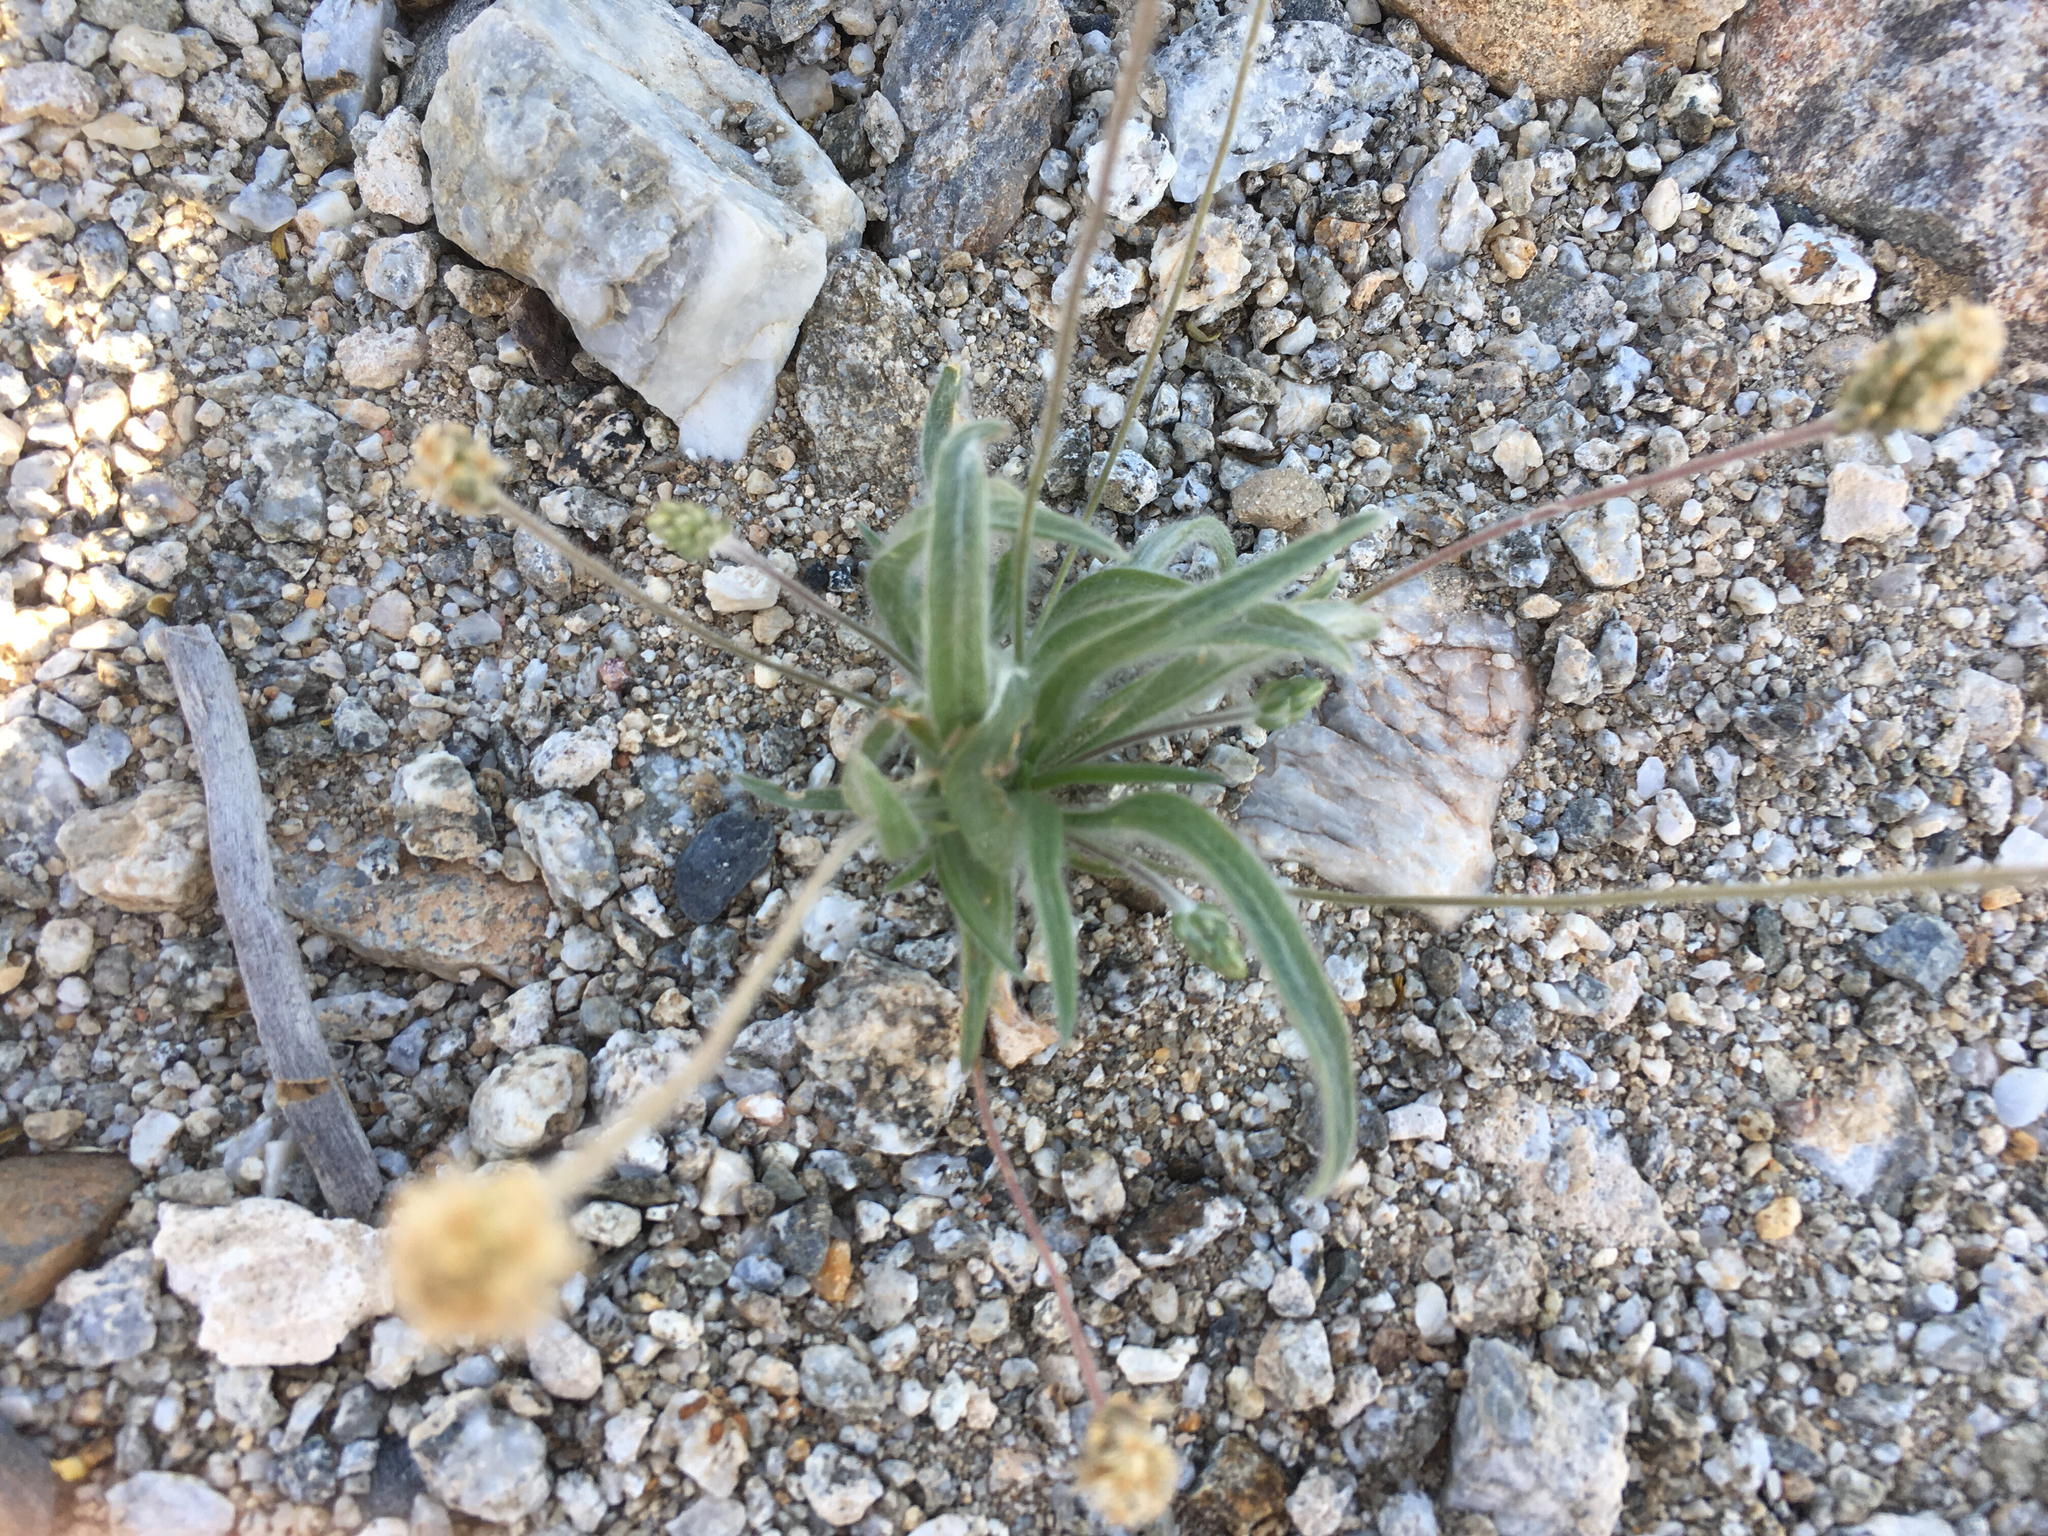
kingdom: Plantae
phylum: Tracheophyta
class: Magnoliopsida
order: Lamiales
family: Plantaginaceae
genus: Plantago
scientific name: Plantago ovata
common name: Blond plantain
